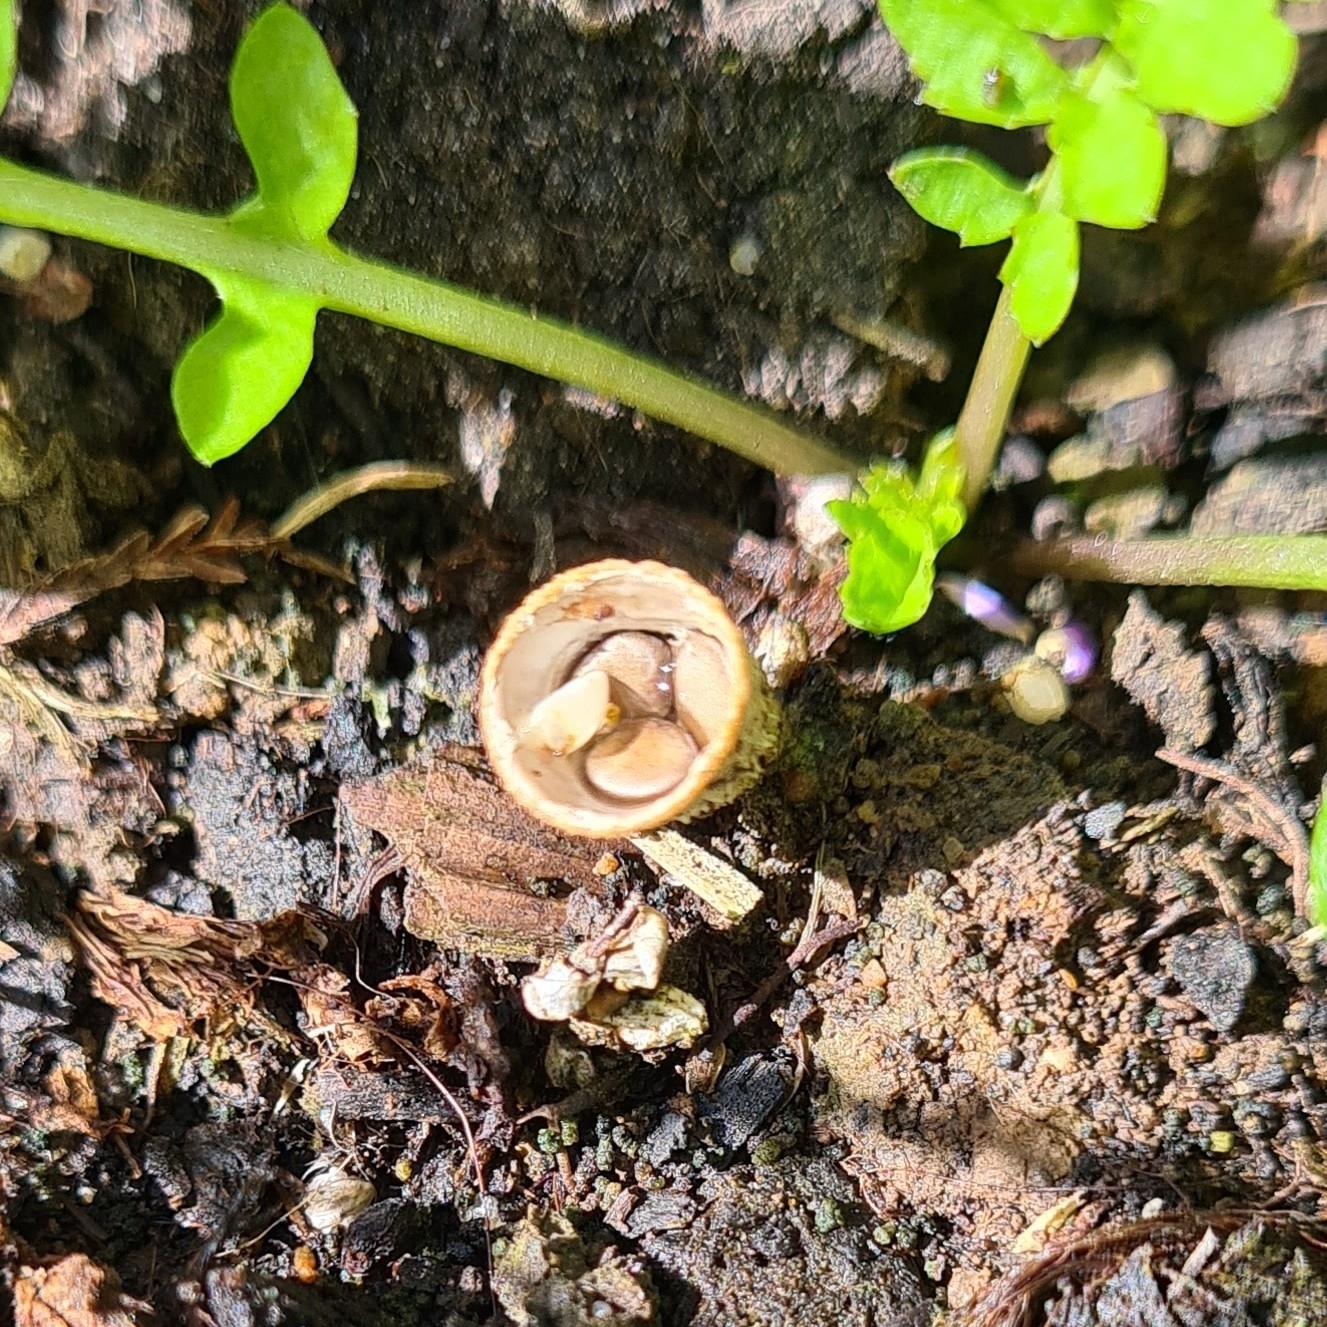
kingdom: Fungi
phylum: Basidiomycota
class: Agaricomycetes
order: Agaricales
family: Nidulariaceae
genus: Crucibulum
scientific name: Crucibulum laeve
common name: Common bird's nest
